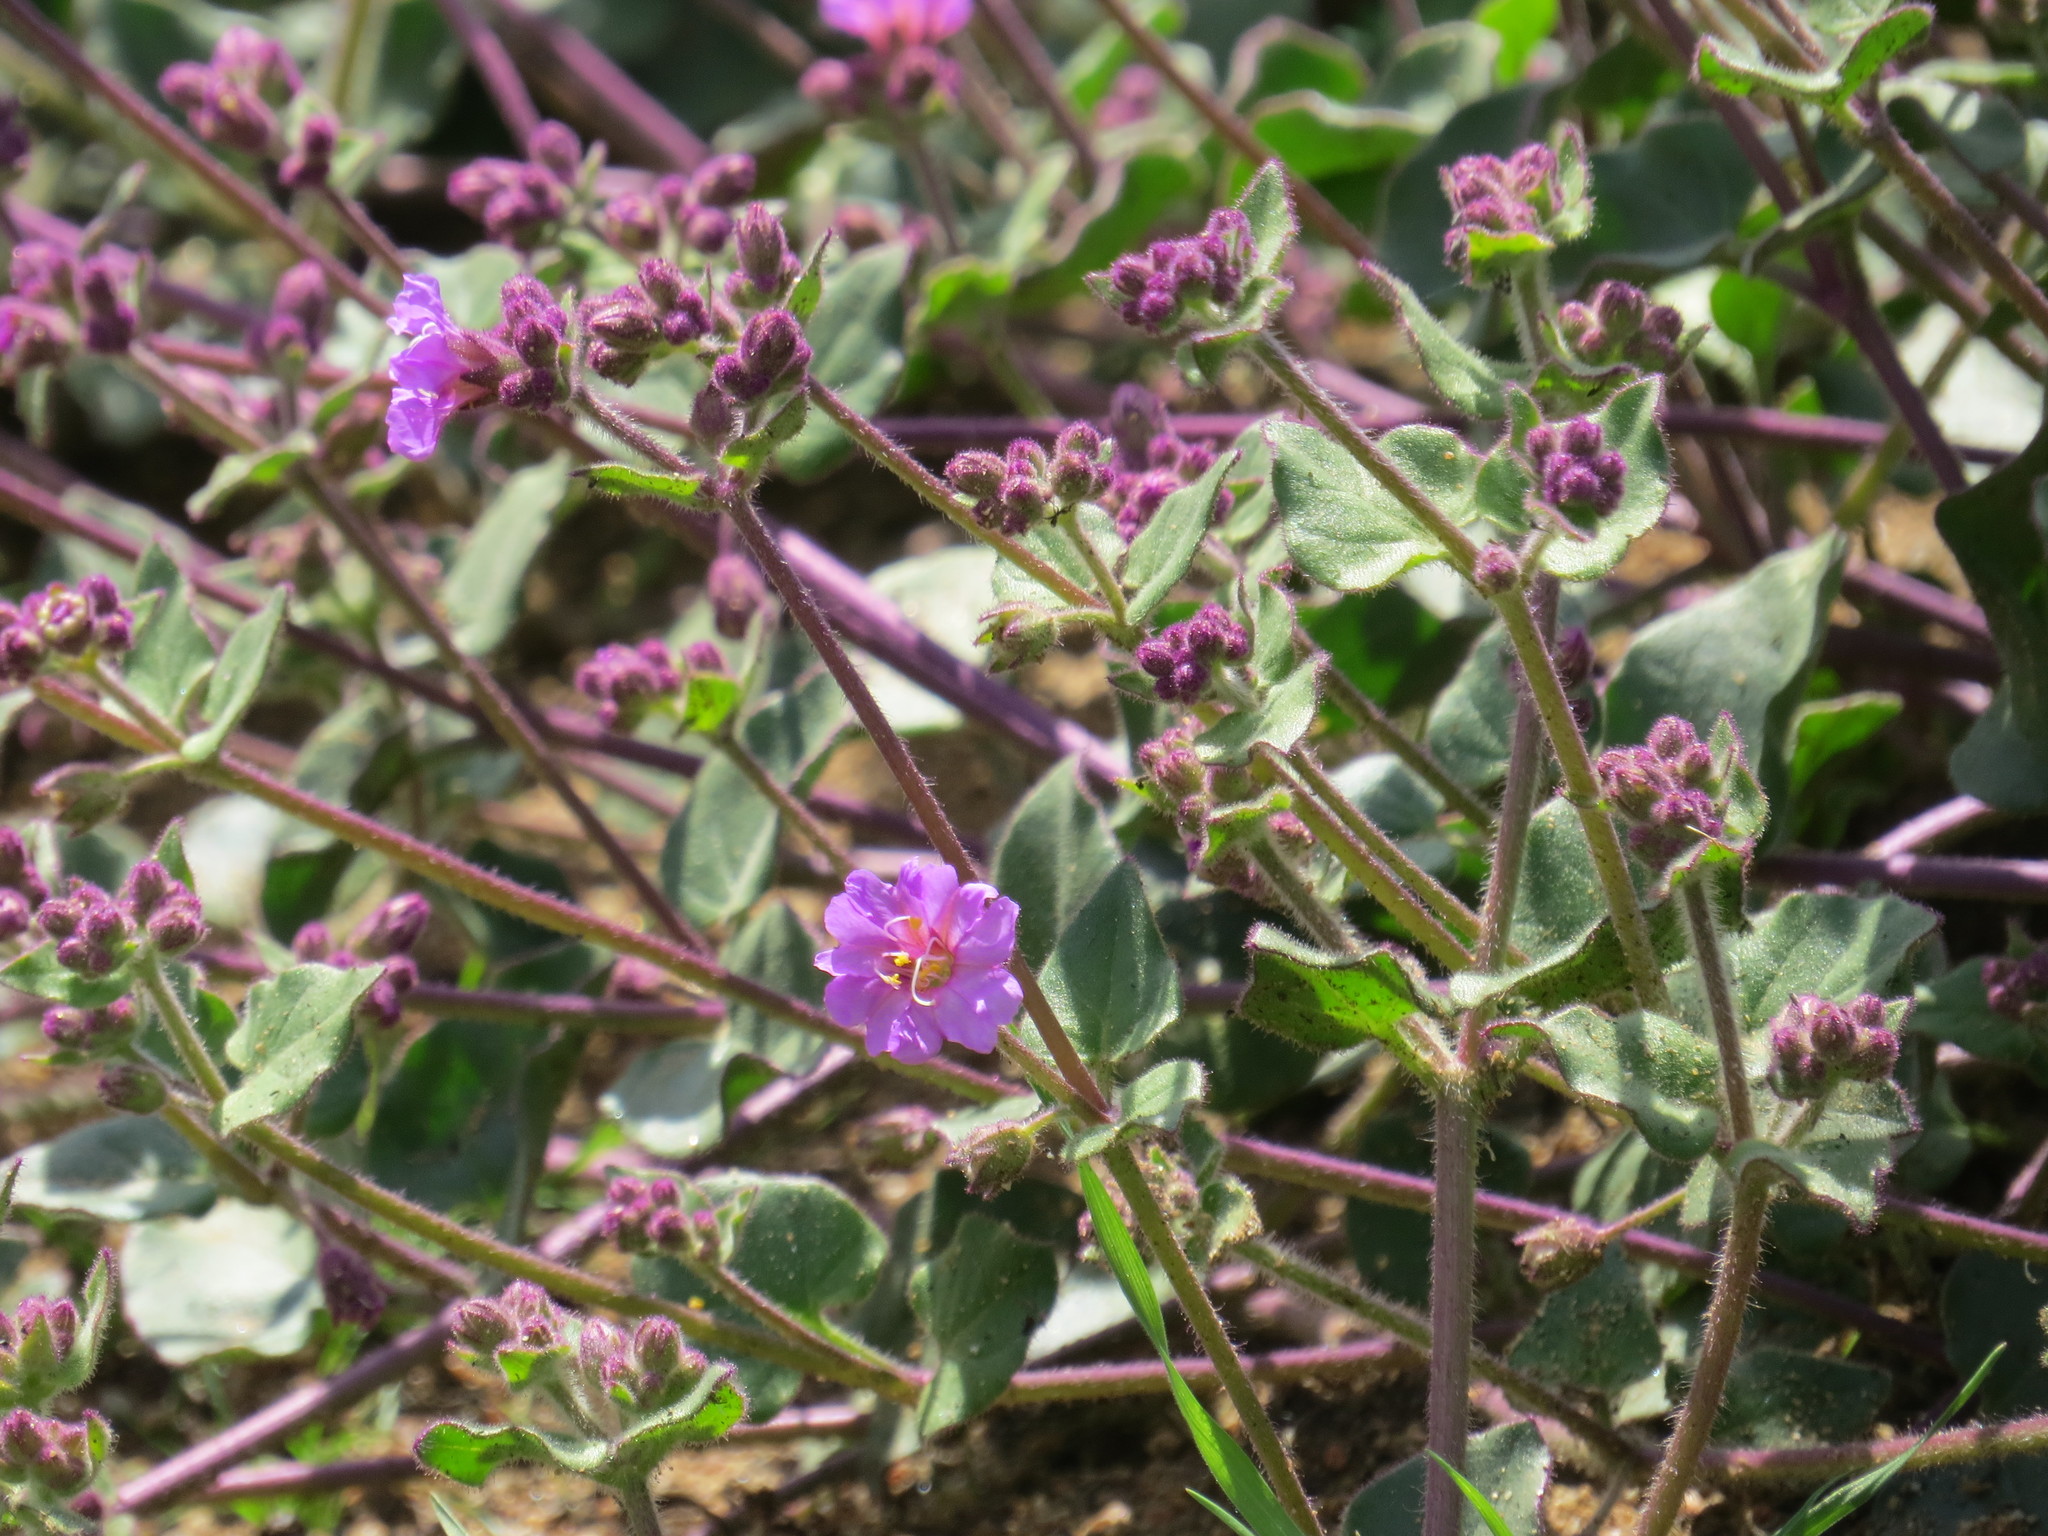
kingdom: Plantae
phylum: Tracheophyta
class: Magnoliopsida
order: Caryophyllales
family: Nyctaginaceae
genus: Mirabilis
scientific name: Mirabilis laevis
